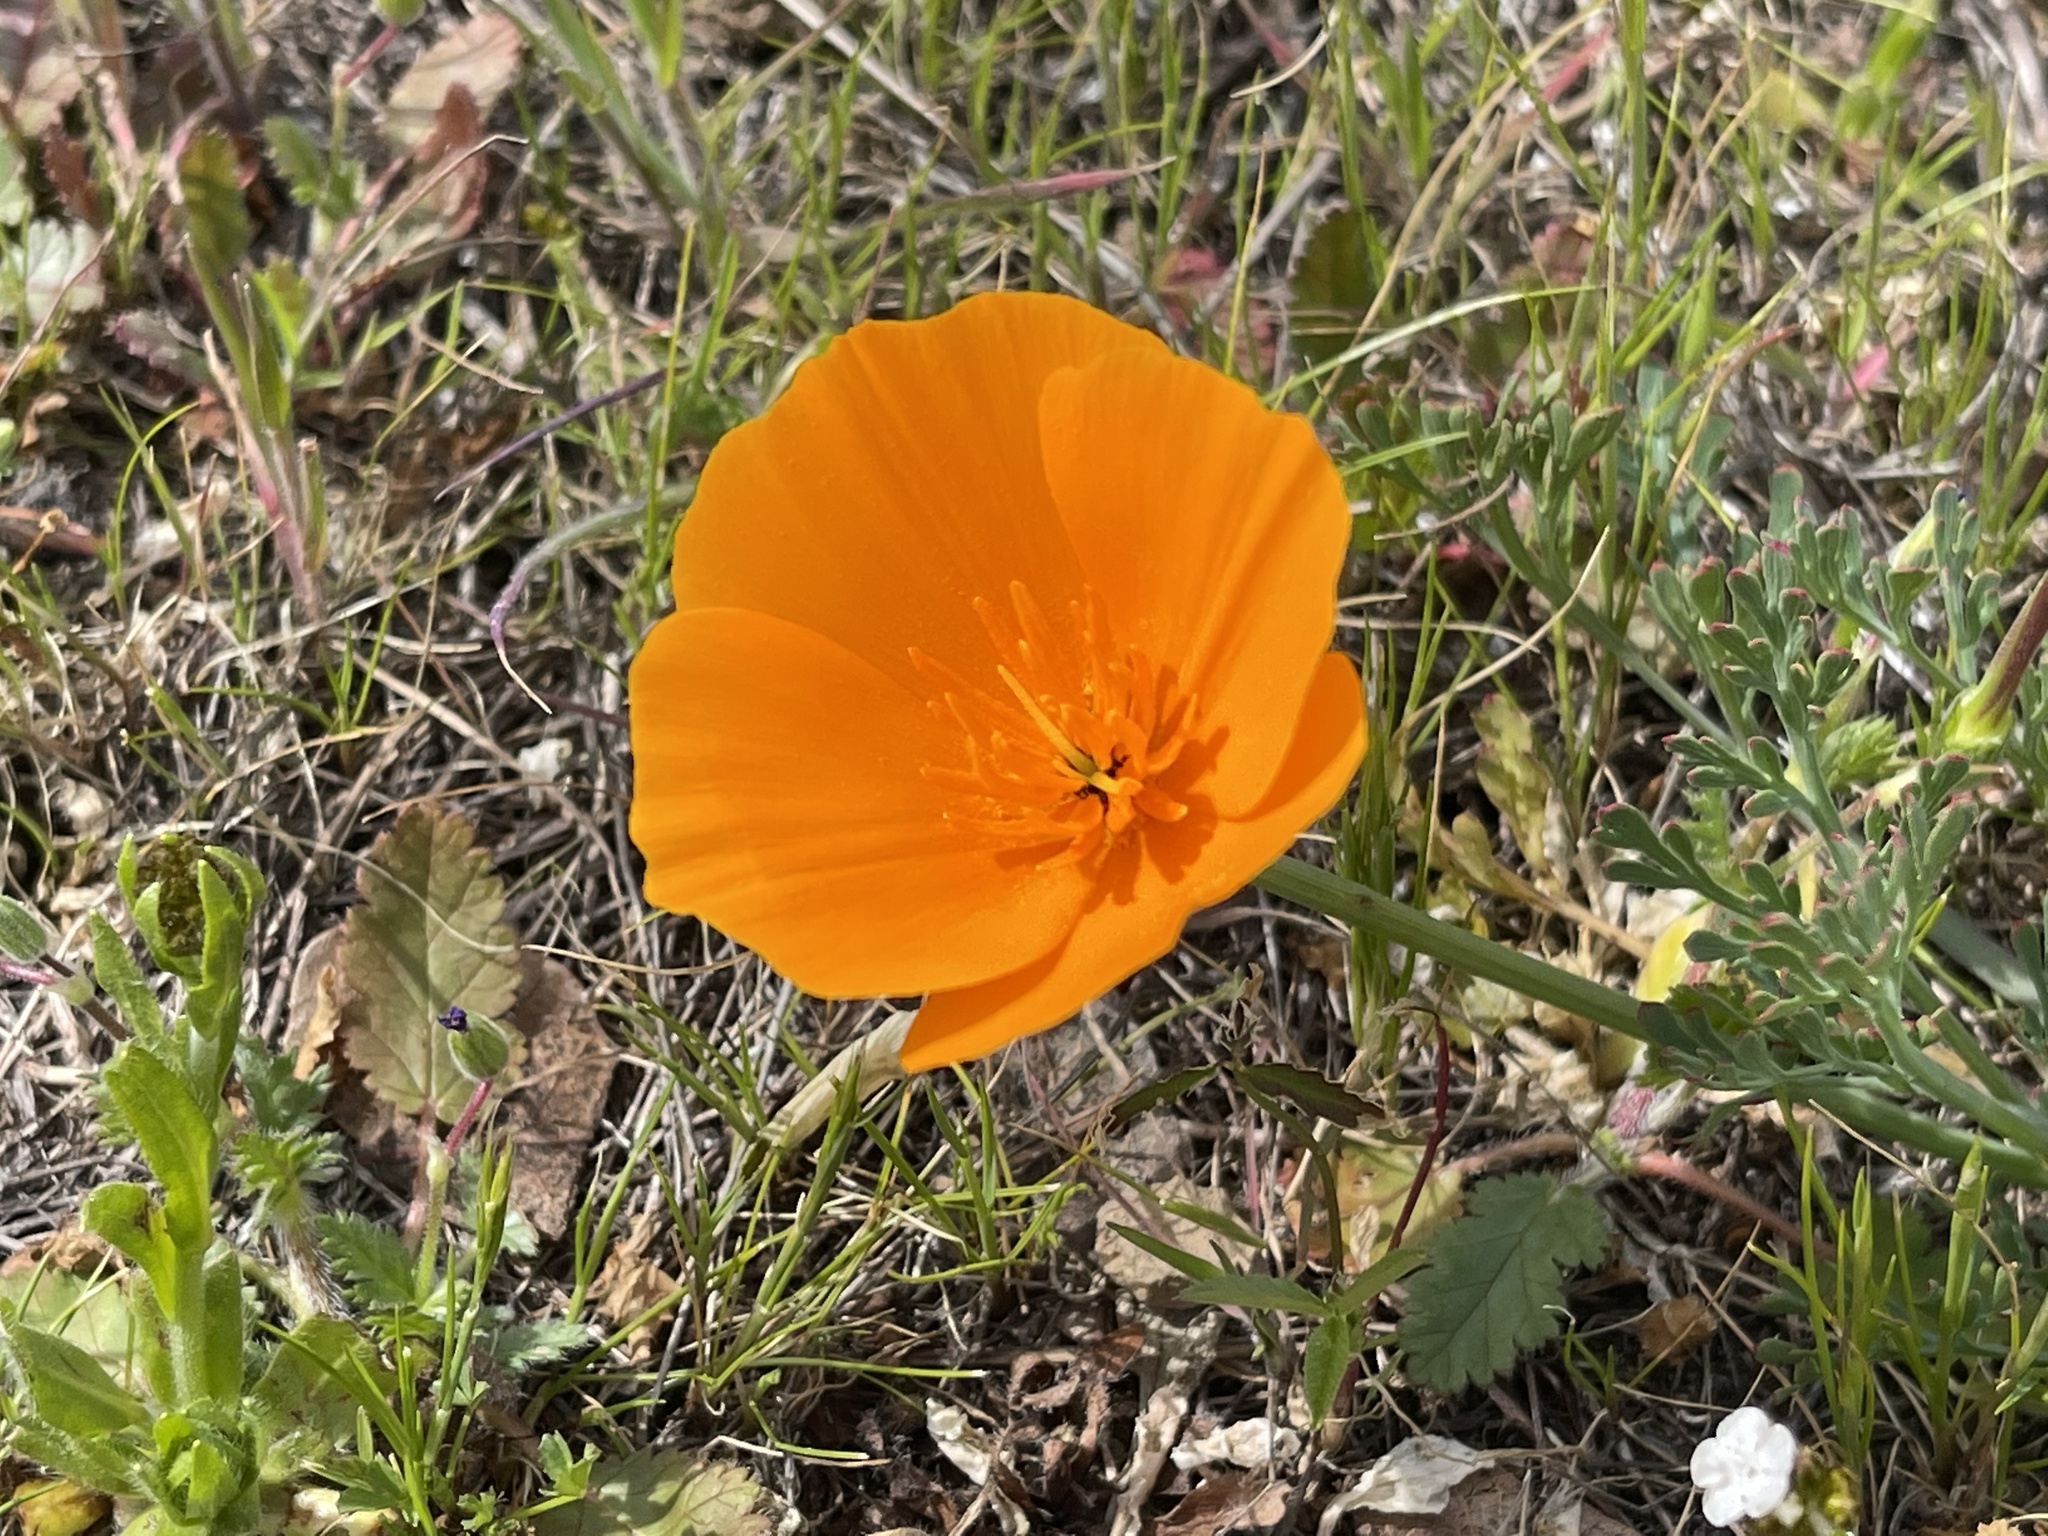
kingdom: Plantae
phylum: Tracheophyta
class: Magnoliopsida
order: Ranunculales
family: Papaveraceae
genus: Eschscholzia
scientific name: Eschscholzia californica
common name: California poppy
